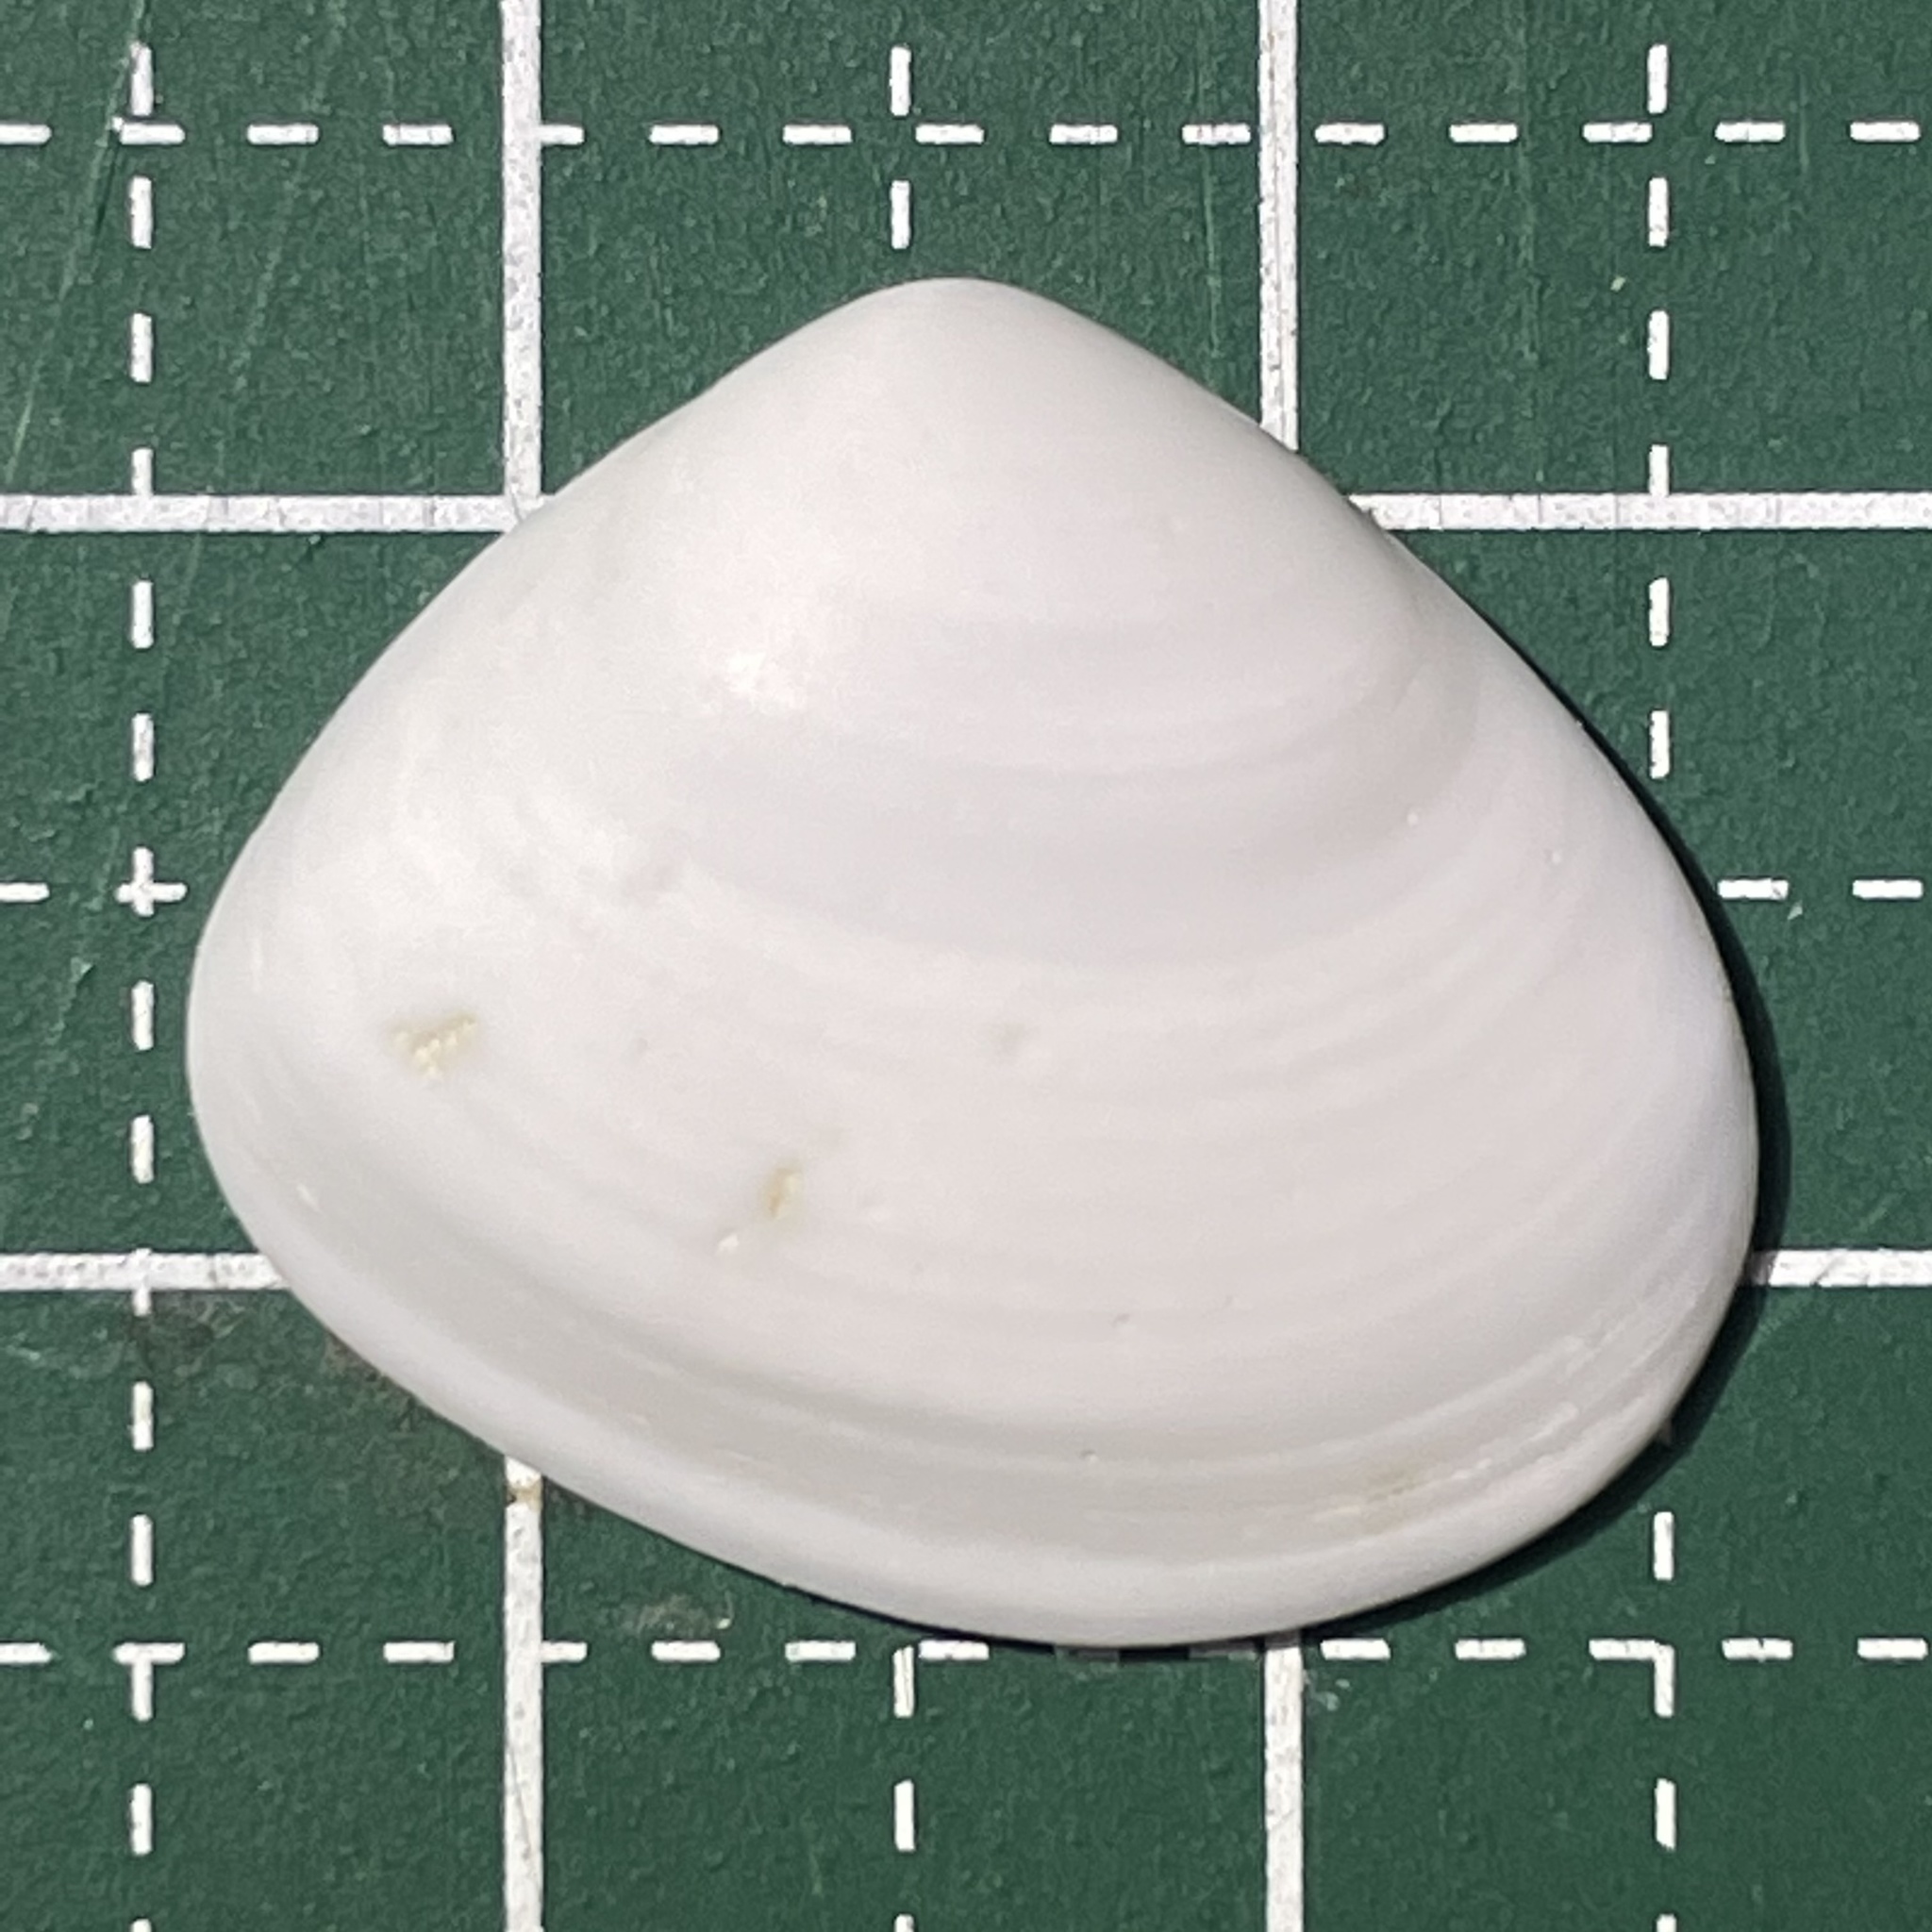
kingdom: Animalia
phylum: Mollusca
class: Bivalvia
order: Venerida
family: Mesodesmatidae
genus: Atactodea
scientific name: Atactodea striata
